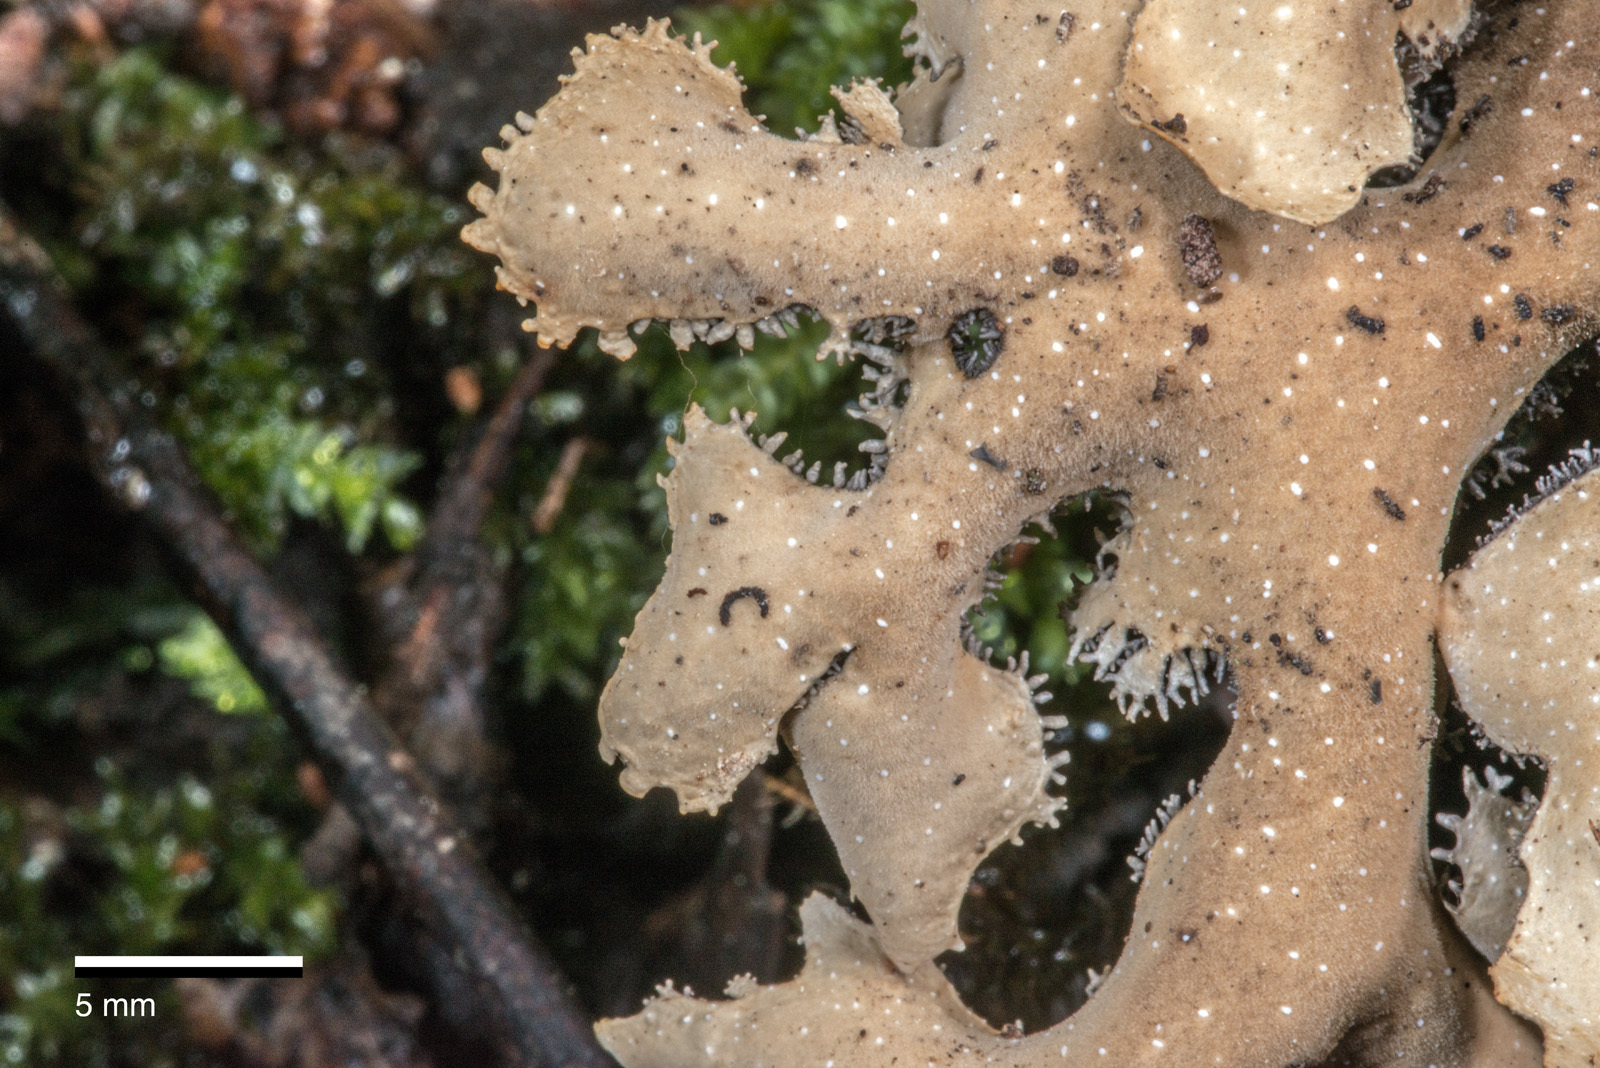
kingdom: Fungi
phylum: Ascomycota
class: Lecanoromycetes
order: Peltigerales
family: Lobariaceae
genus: Pseudocyphellaria
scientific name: Pseudocyphellaria dissimilis
